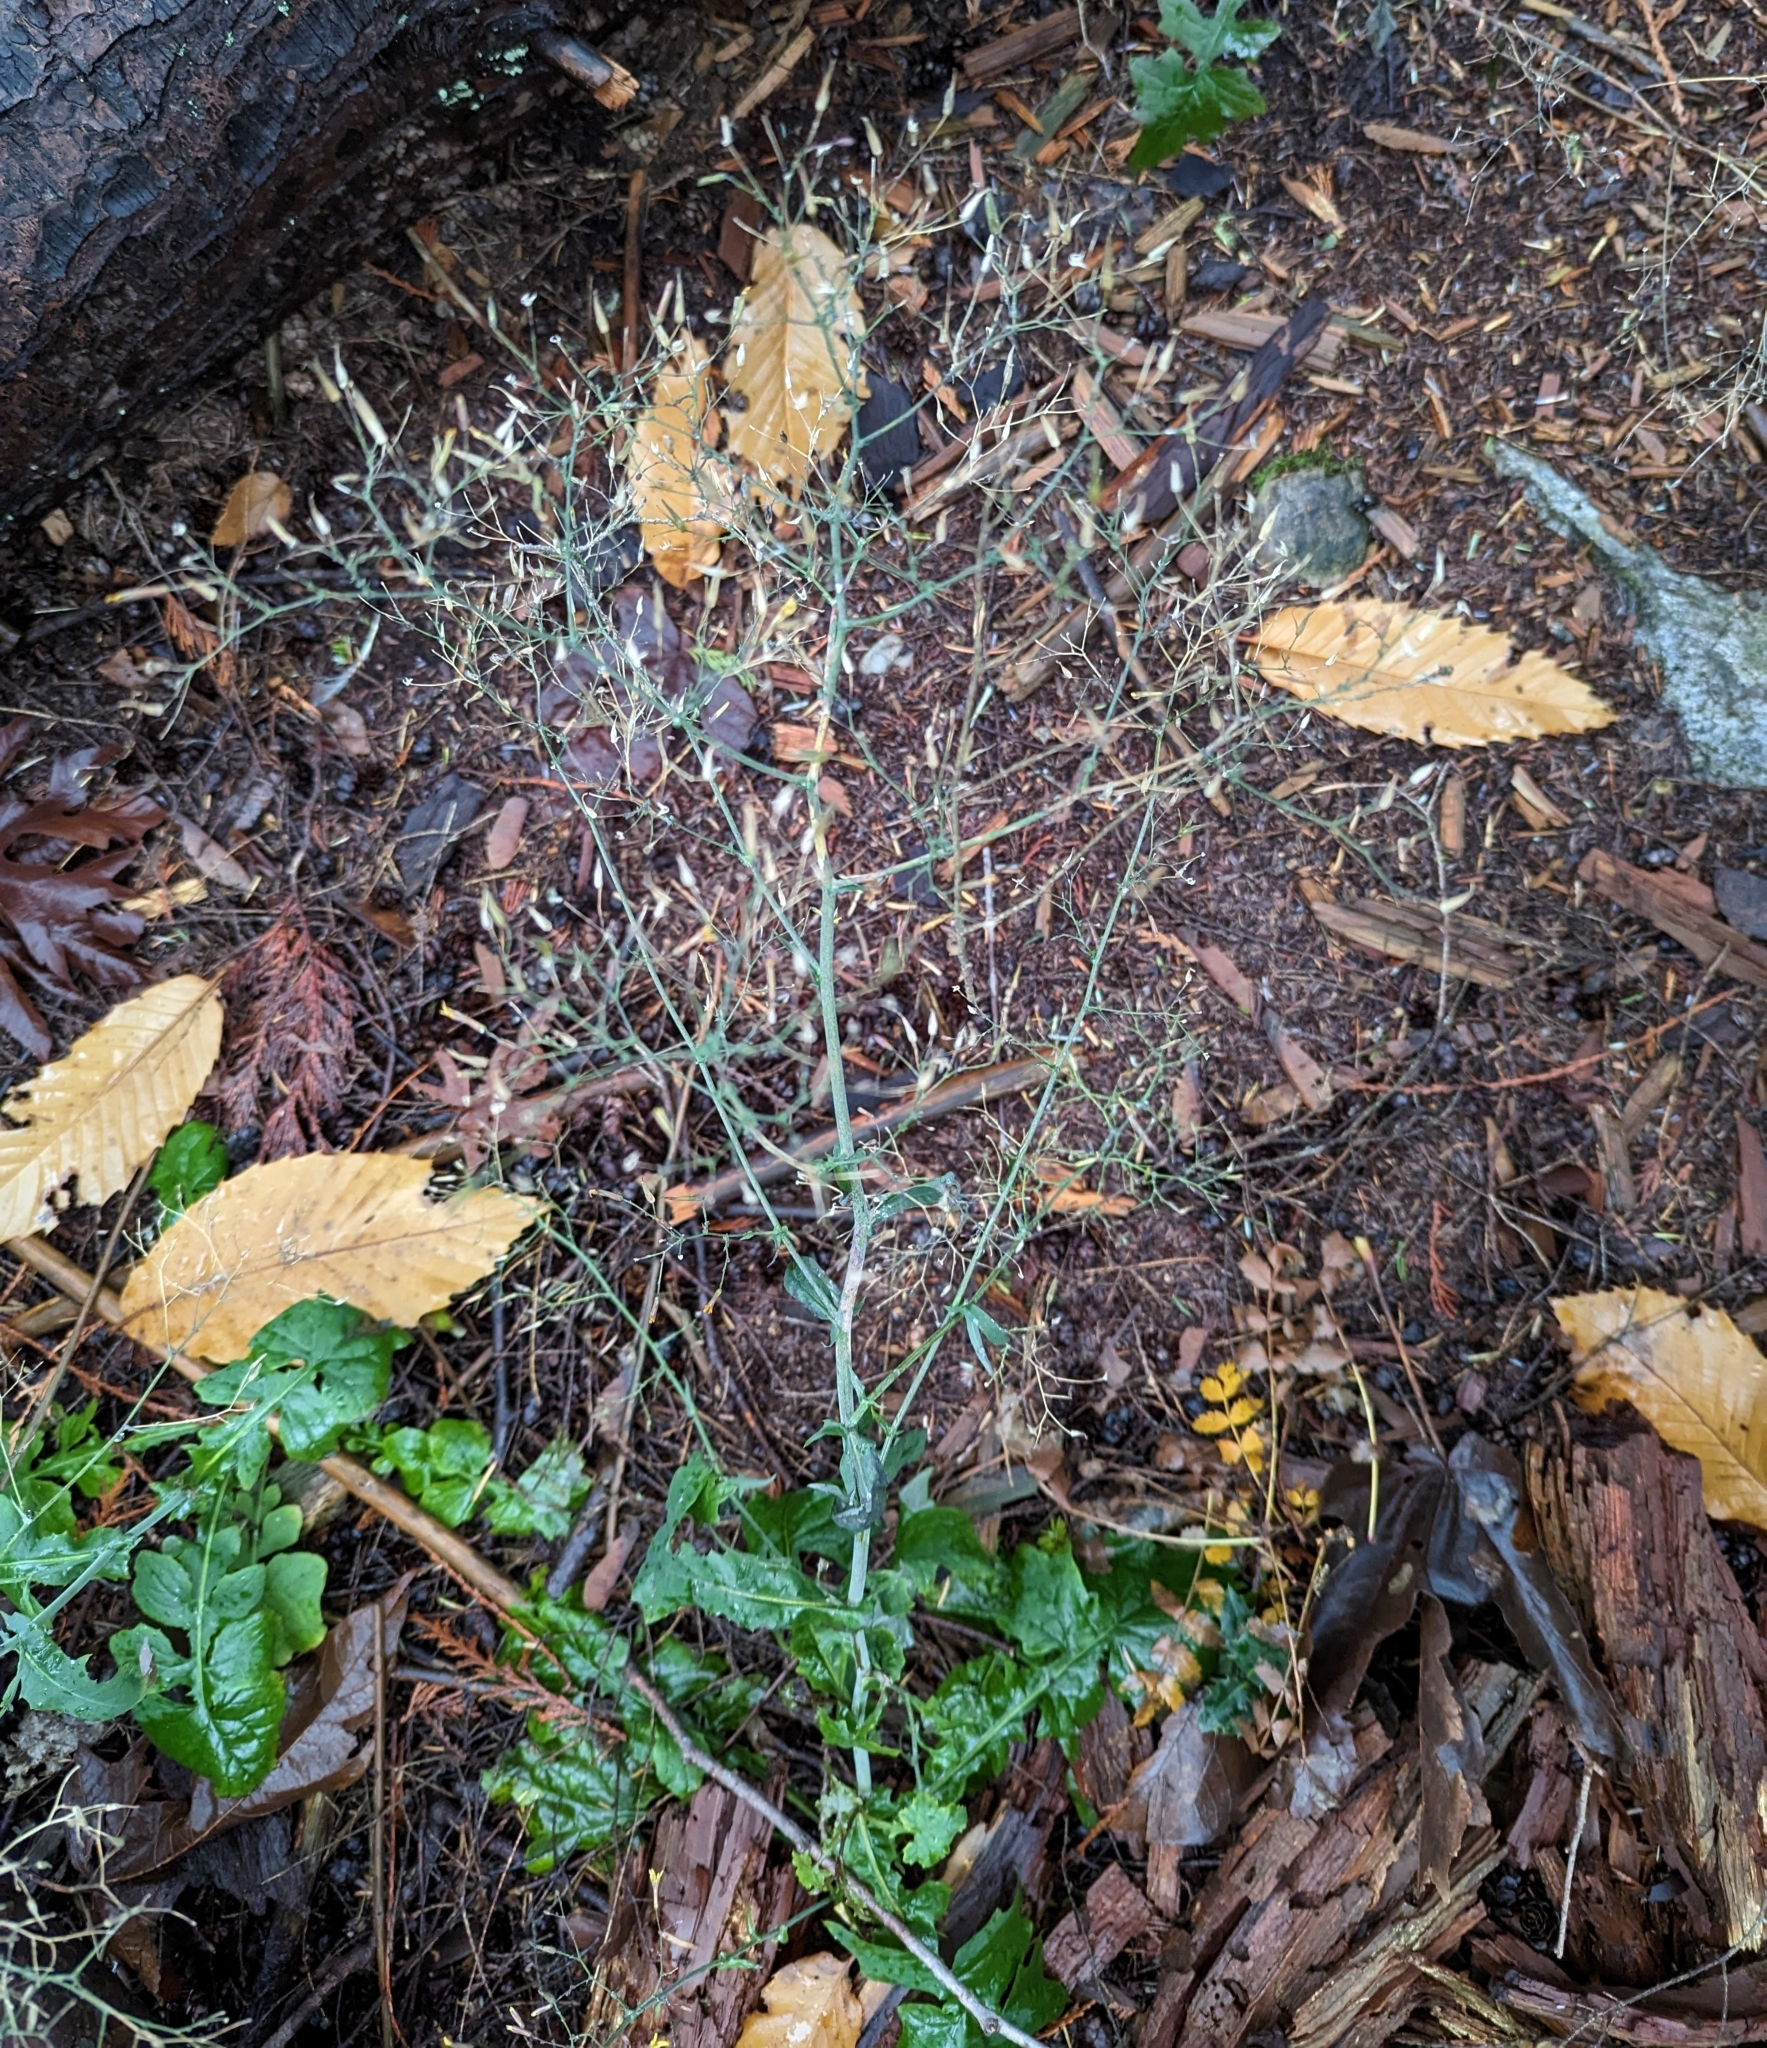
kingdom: Plantae
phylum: Tracheophyta
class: Magnoliopsida
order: Asterales
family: Asteraceae
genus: Mycelis
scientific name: Mycelis muralis
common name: Wall lettuce
